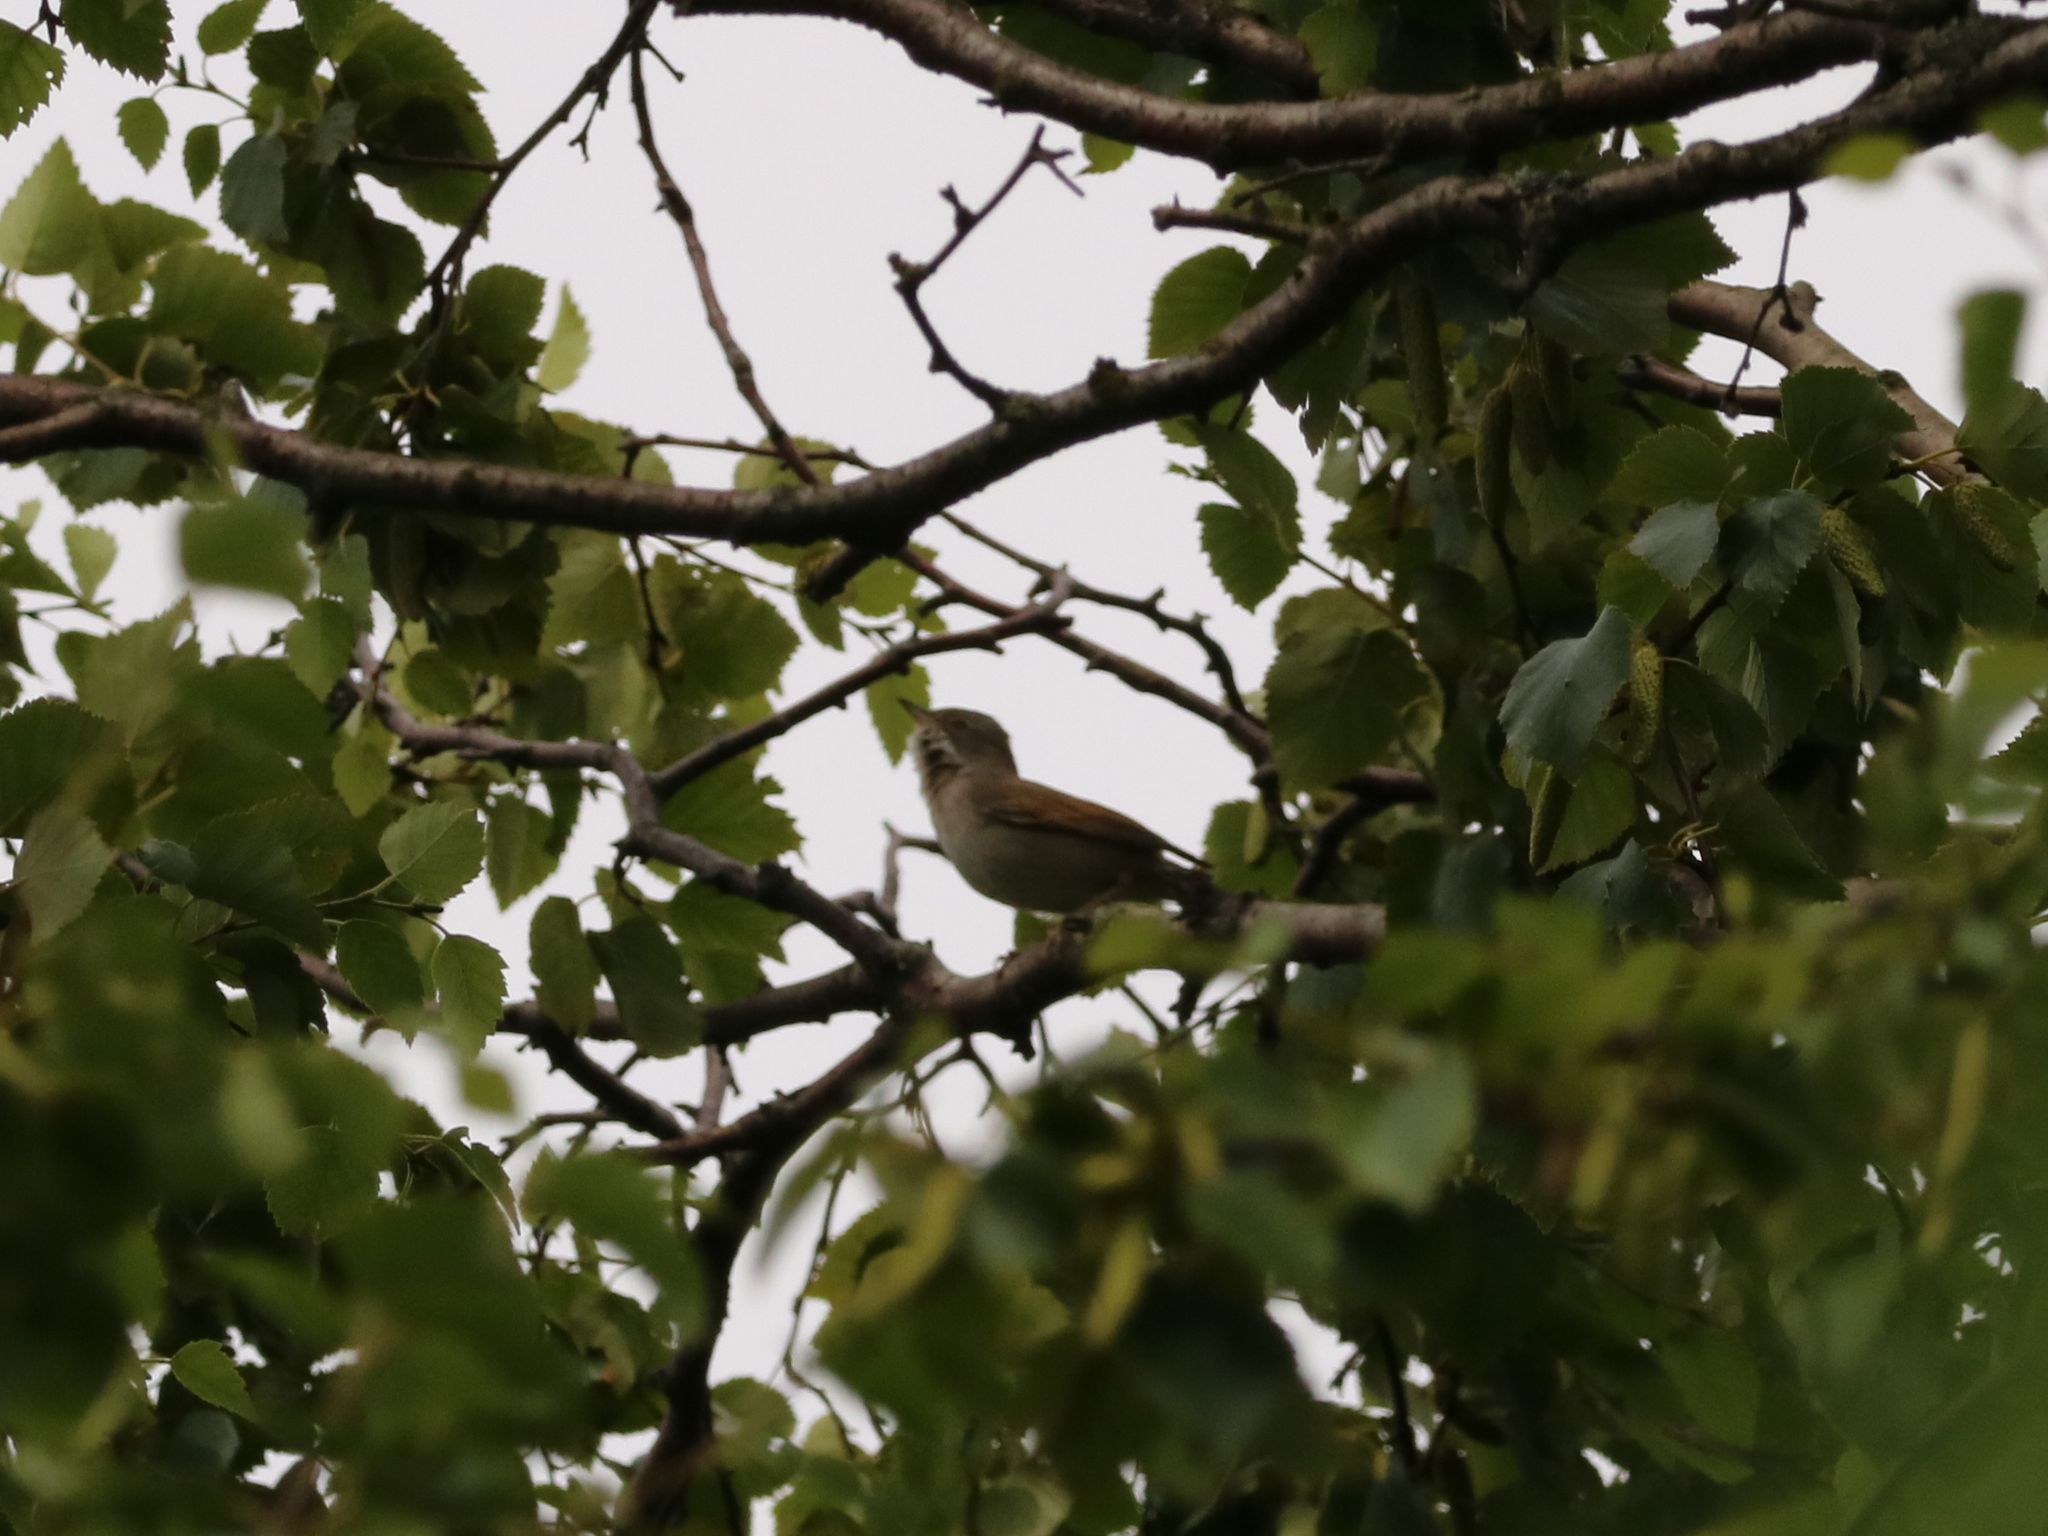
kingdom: Animalia
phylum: Chordata
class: Aves
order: Passeriformes
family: Sylviidae
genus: Sylvia
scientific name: Sylvia communis
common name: Common whitethroat
